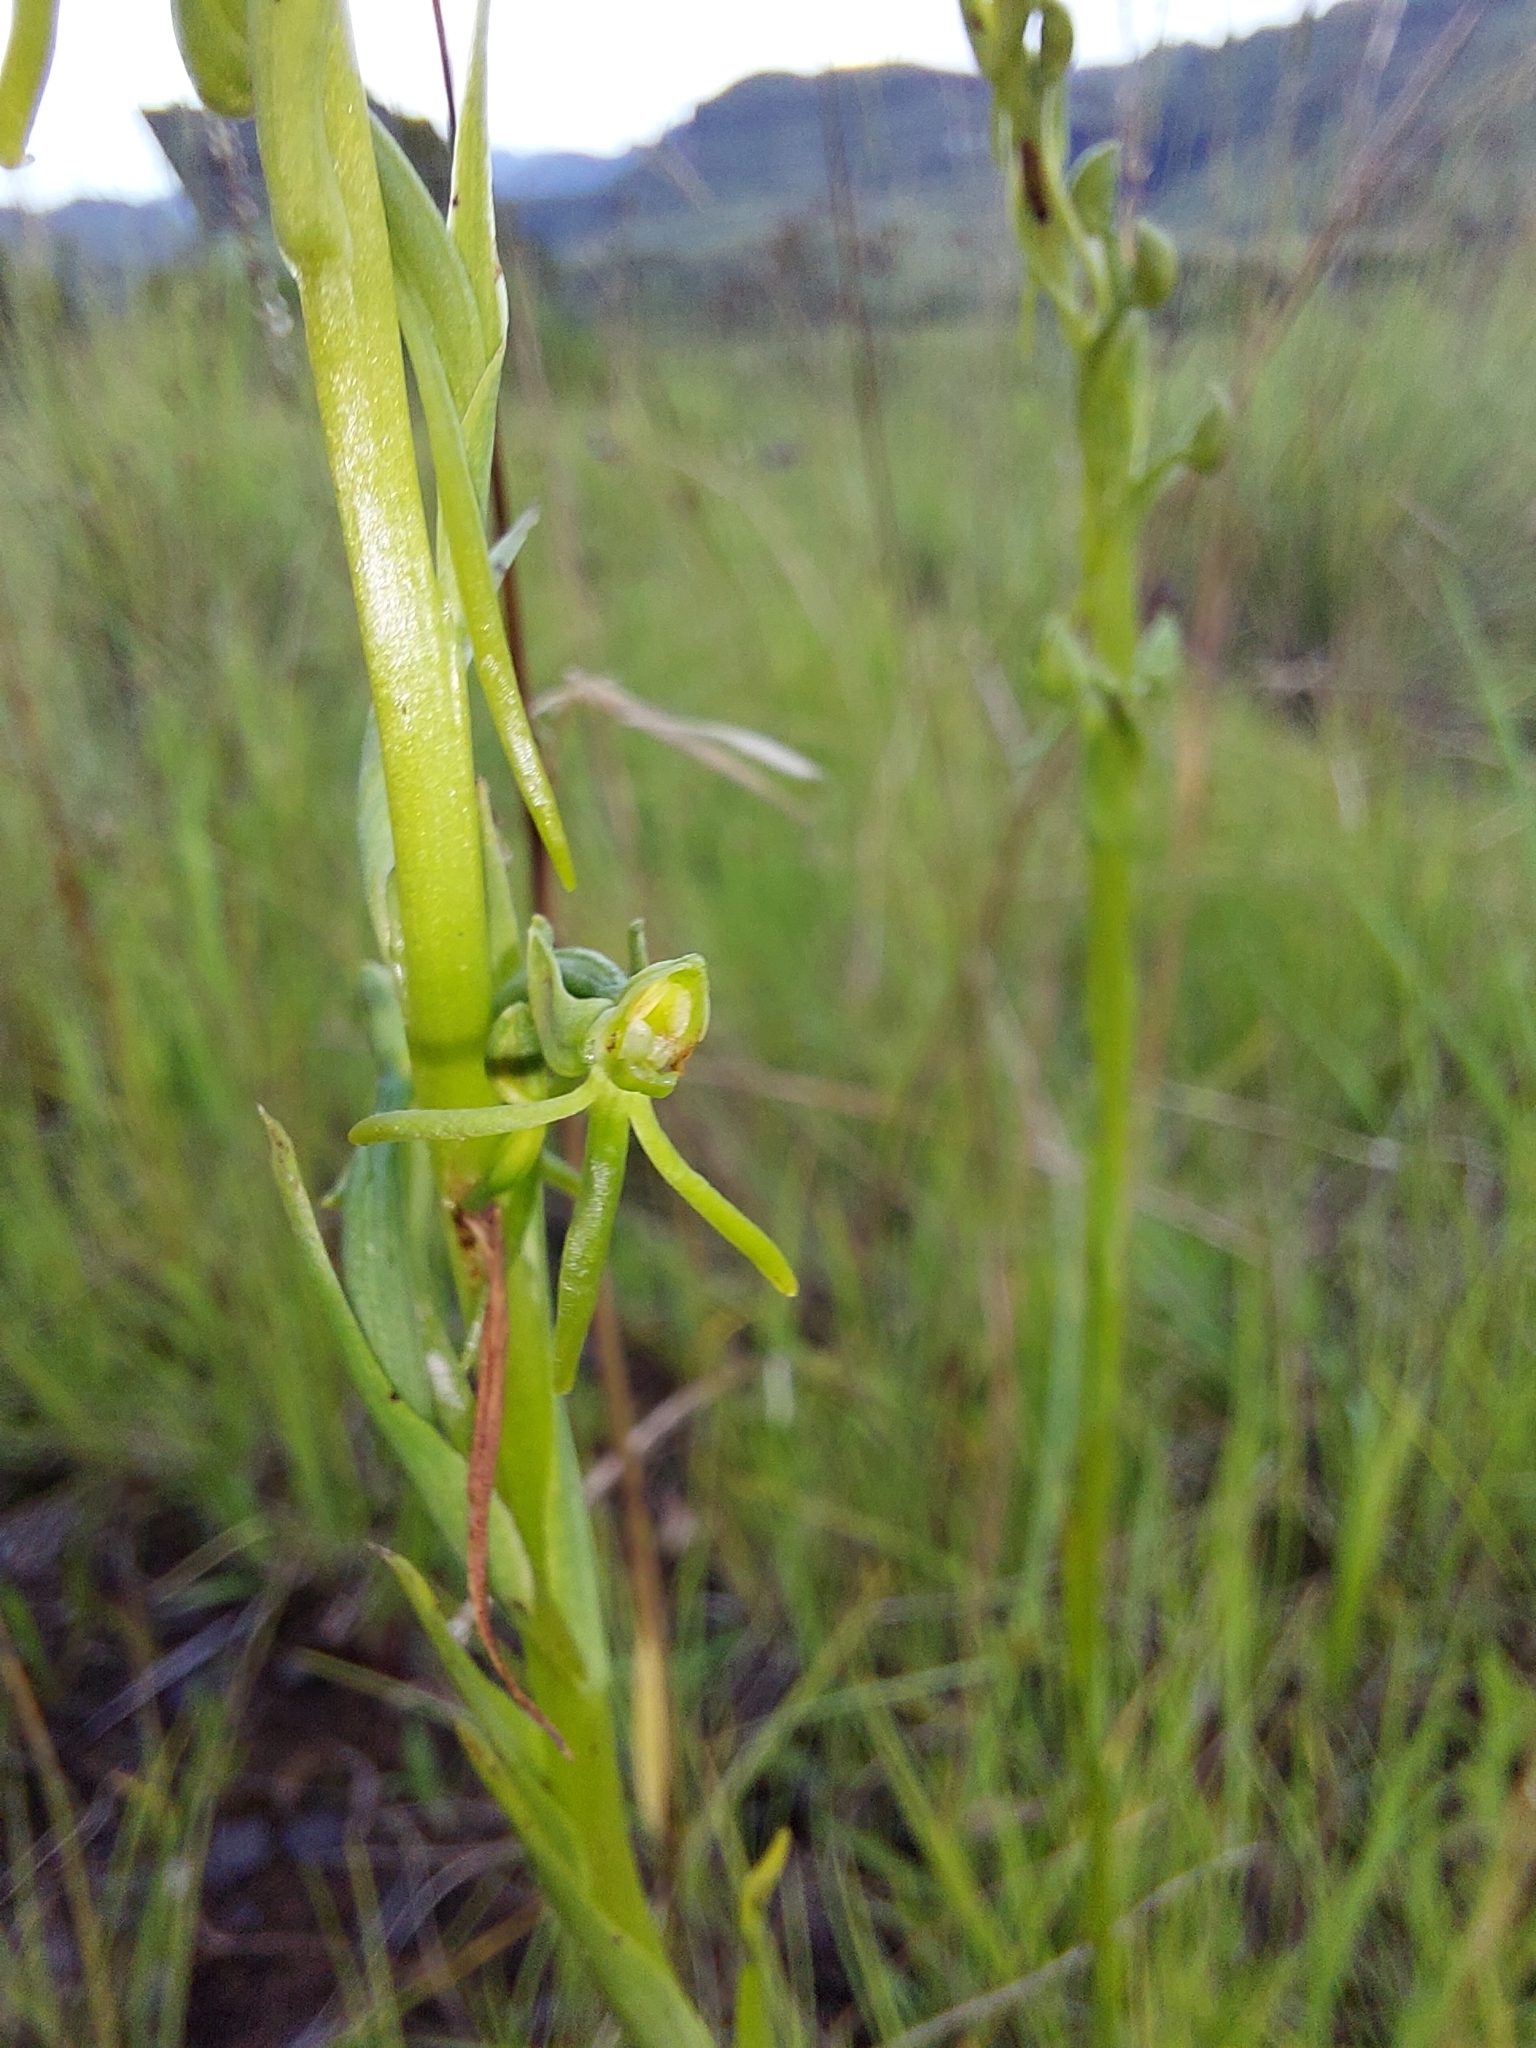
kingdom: Plantae
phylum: Tracheophyta
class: Liliopsida
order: Asparagales
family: Orchidaceae
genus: Habenaria
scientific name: Habenaria filicornis
